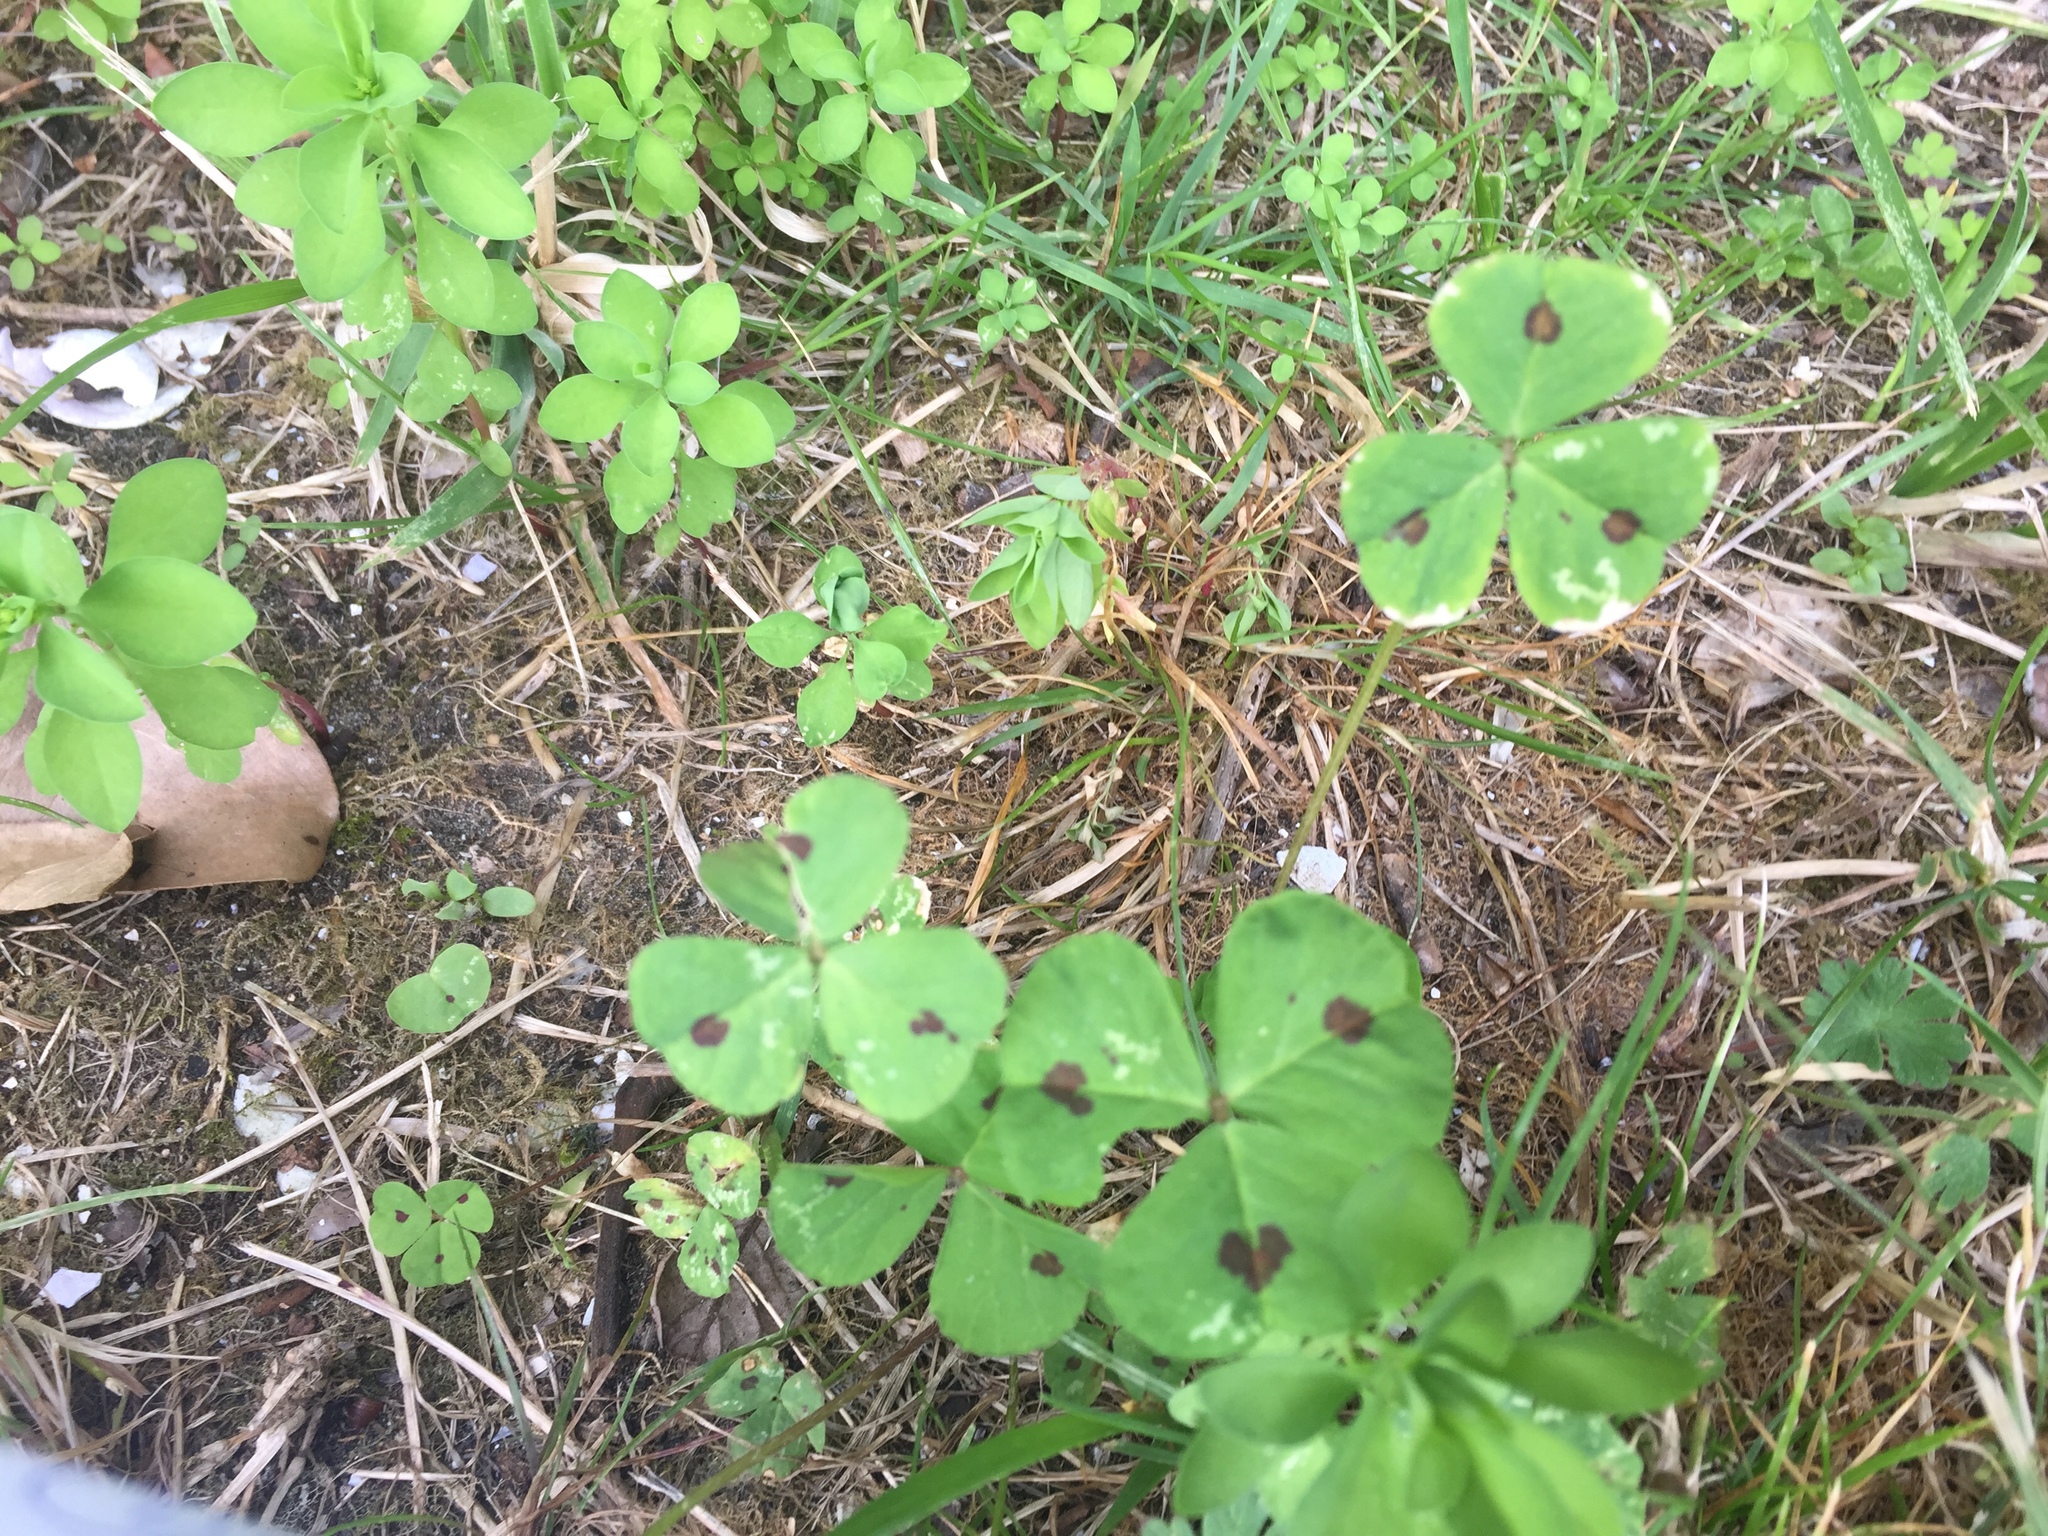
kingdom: Plantae
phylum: Tracheophyta
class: Magnoliopsida
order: Fabales
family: Fabaceae
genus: Medicago
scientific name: Medicago arabica
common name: Spotted medick
